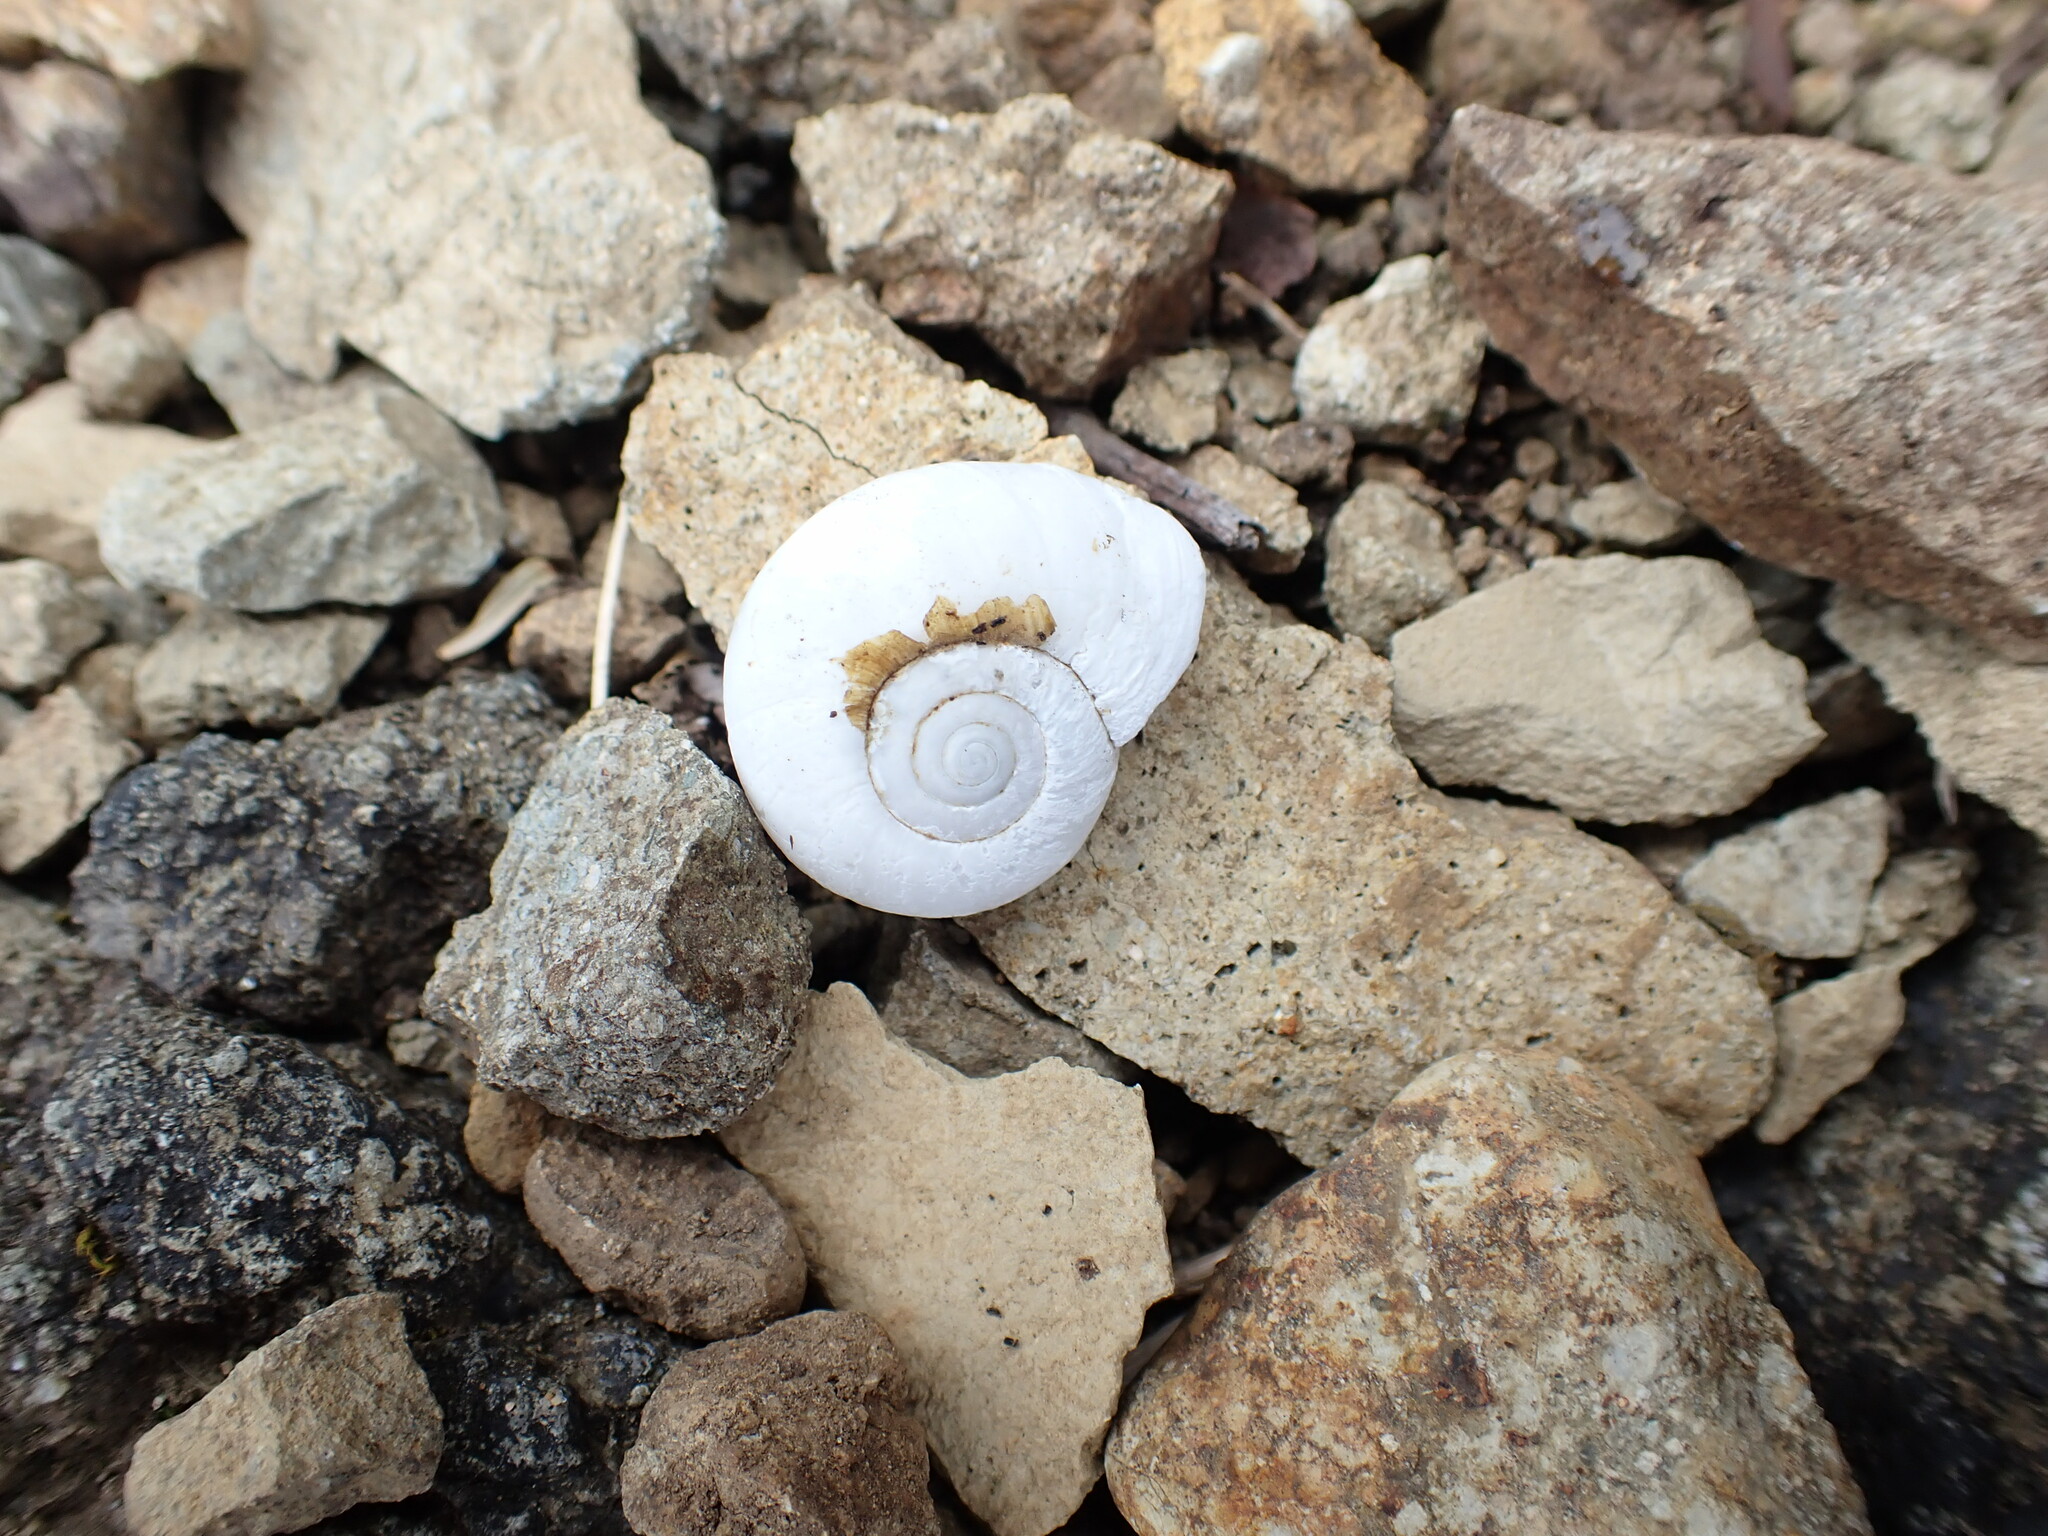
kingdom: Animalia
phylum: Mollusca
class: Gastropoda
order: Stylommatophora
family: Haplotrematidae
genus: Haplotrema
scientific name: Haplotrema vancouverense
